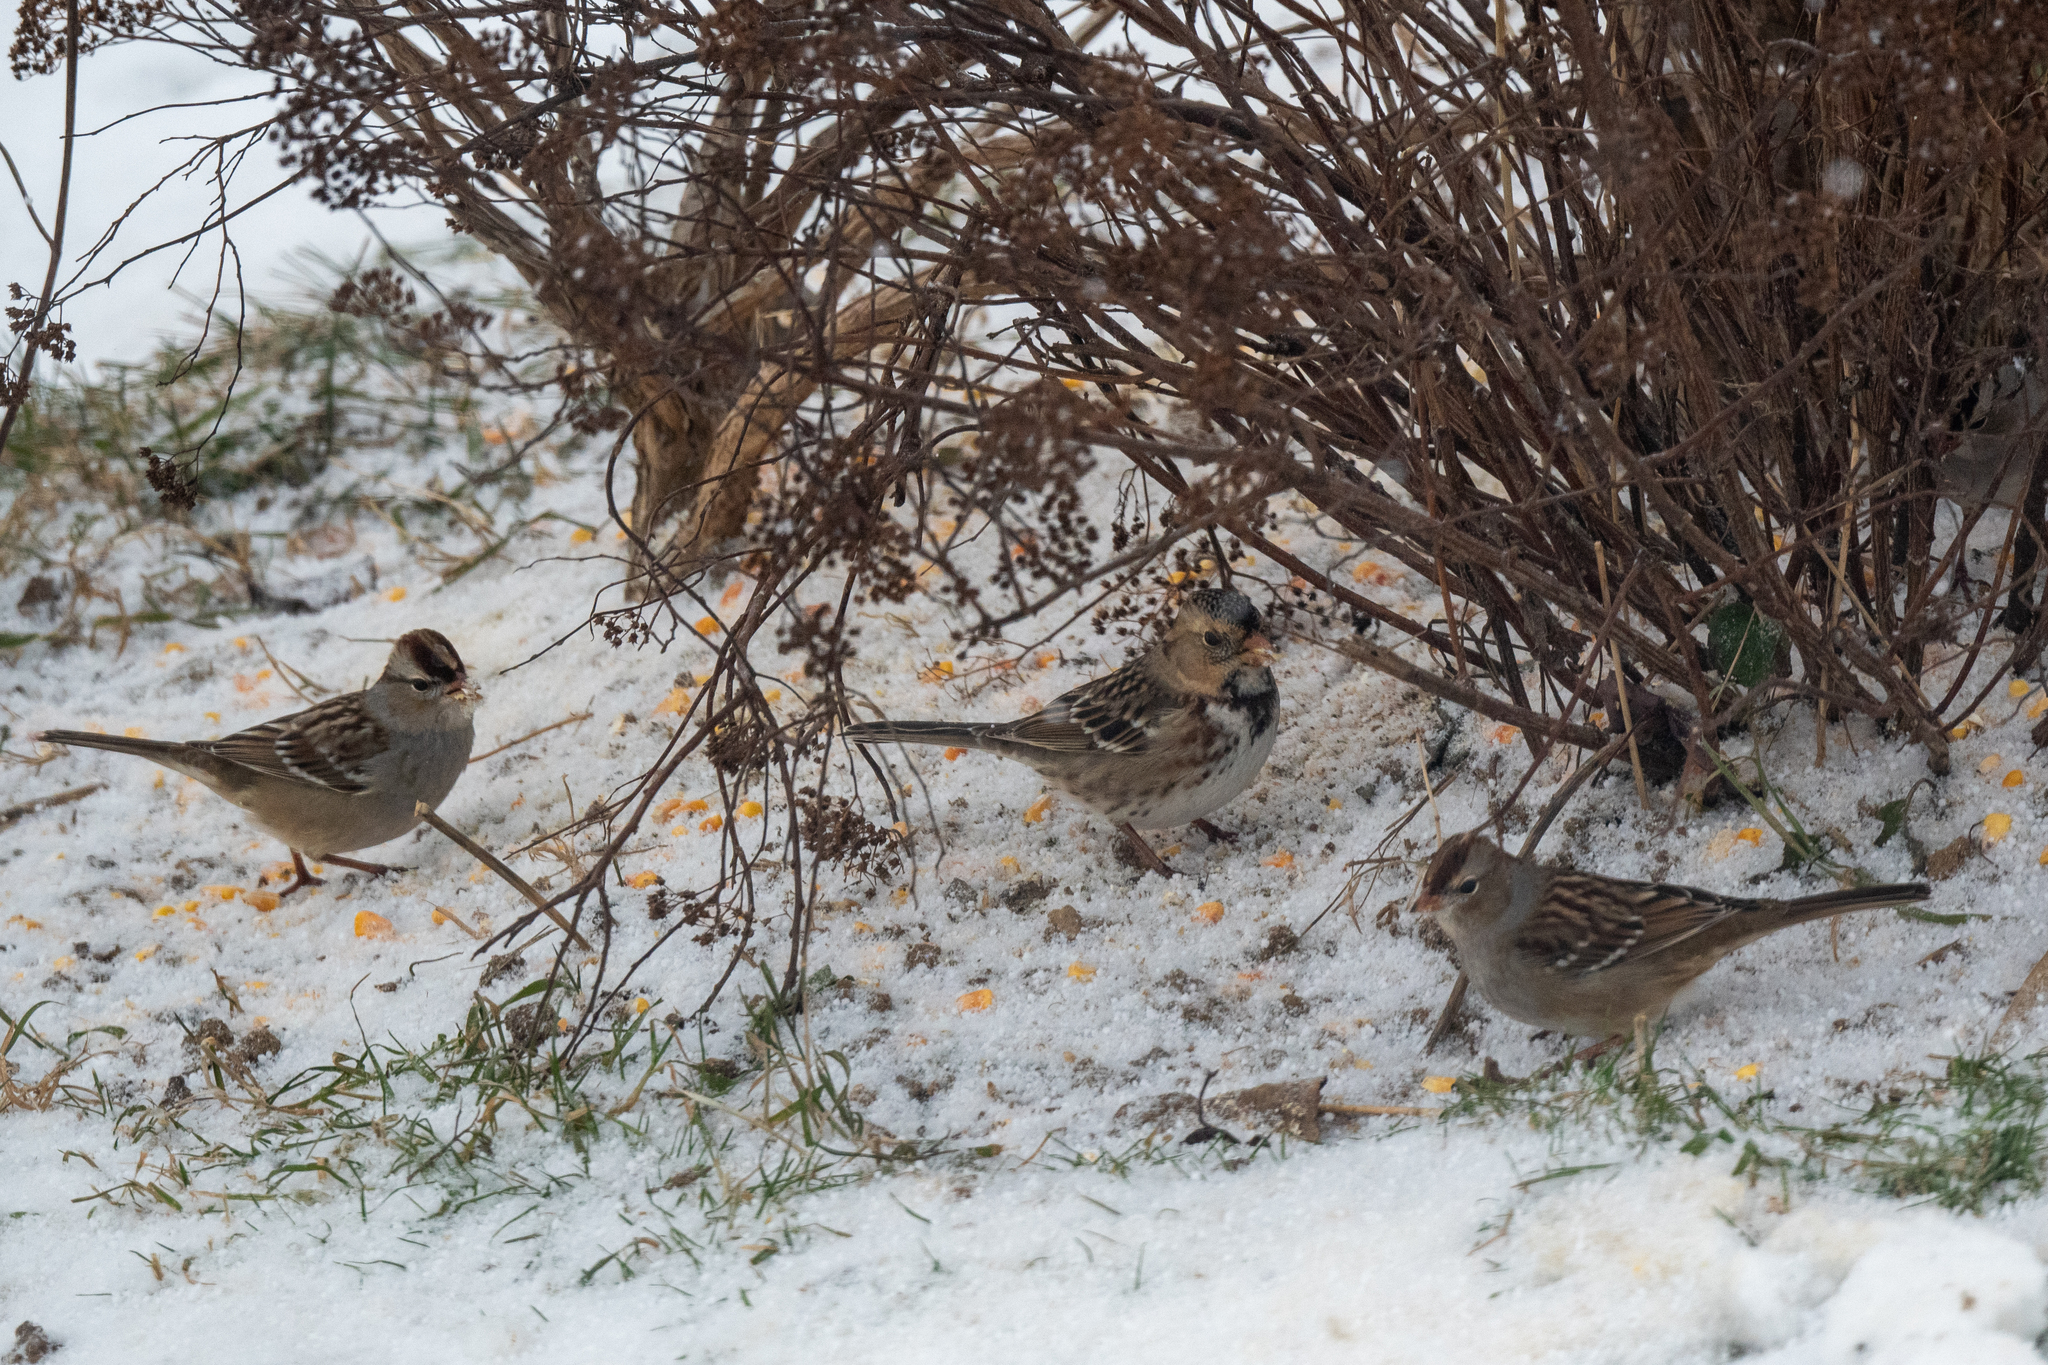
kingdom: Animalia
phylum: Chordata
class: Aves
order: Passeriformes
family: Passerellidae
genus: Zonotrichia
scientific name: Zonotrichia querula
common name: Harris's sparrow
